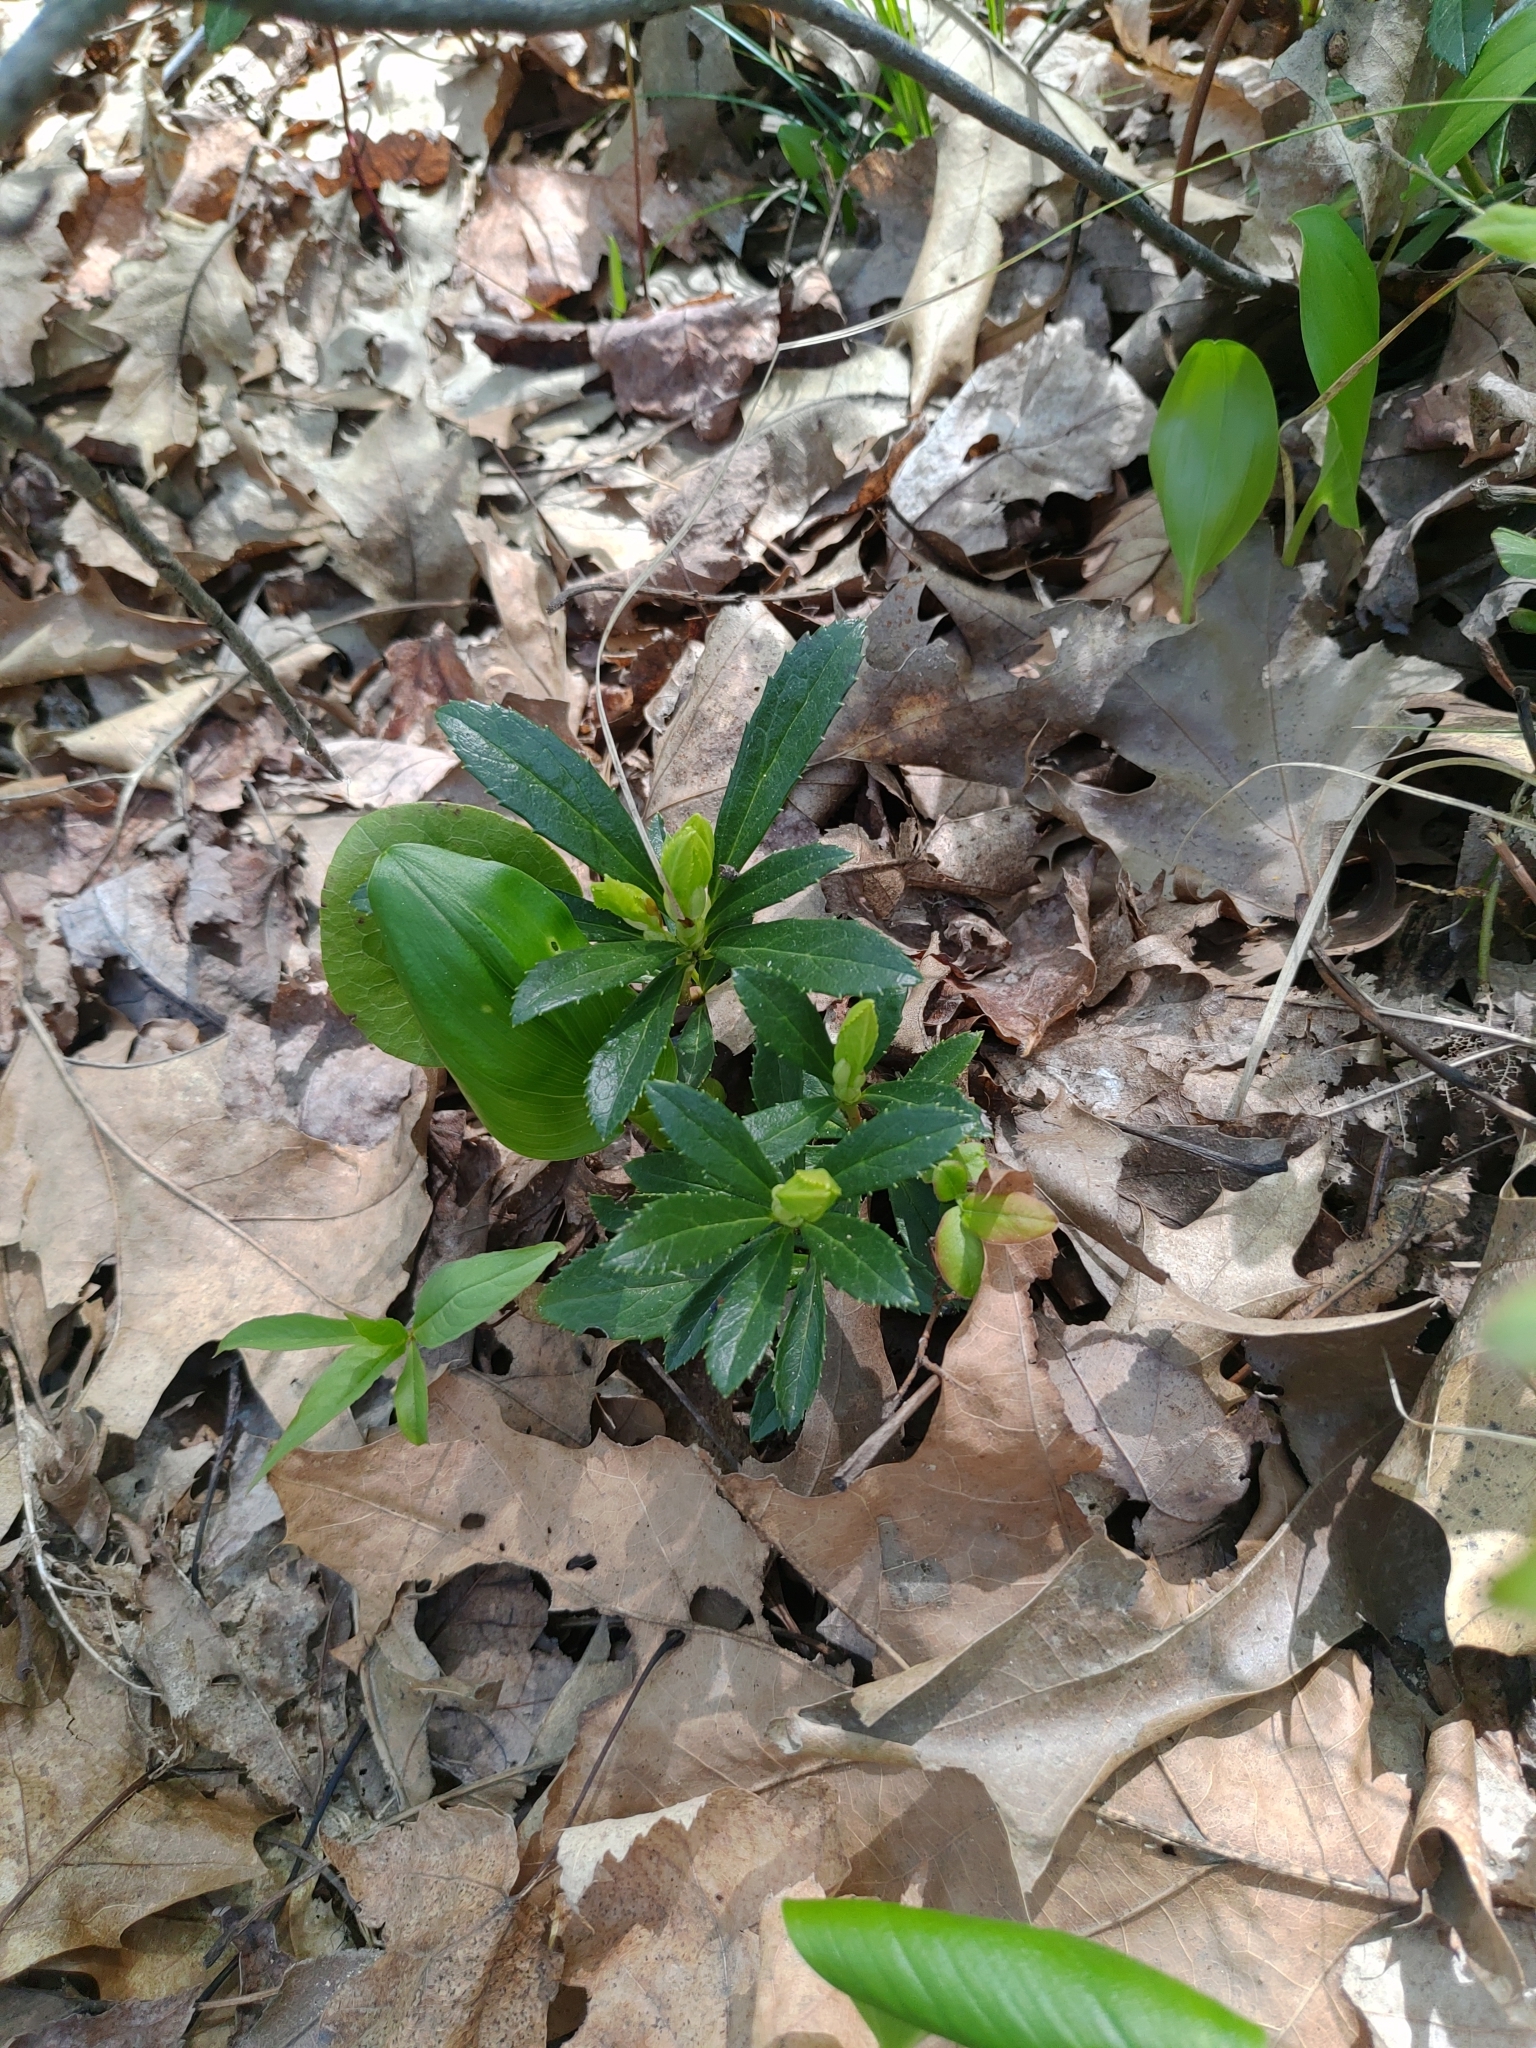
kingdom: Plantae
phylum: Tracheophyta
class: Magnoliopsida
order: Ericales
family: Ericaceae
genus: Chimaphila
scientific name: Chimaphila umbellata
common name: Pipsissewa
